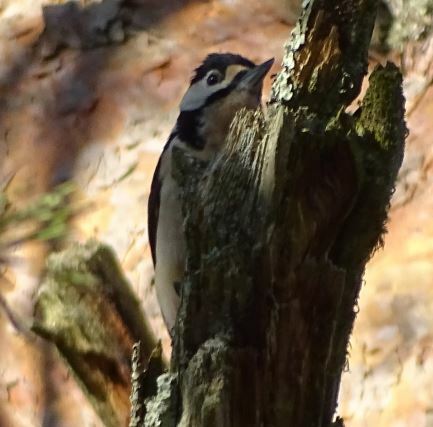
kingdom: Animalia
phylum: Chordata
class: Aves
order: Piciformes
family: Picidae
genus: Dendrocopos
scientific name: Dendrocopos major
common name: Great spotted woodpecker
